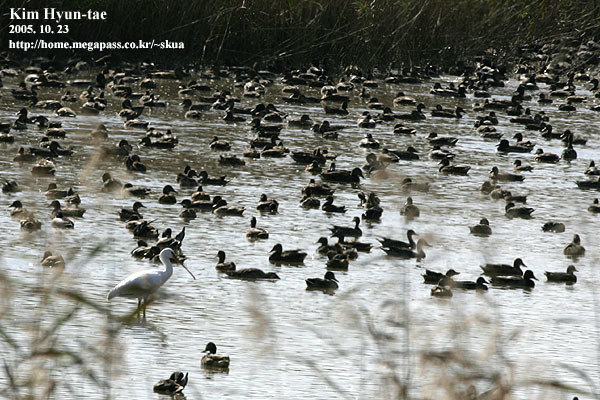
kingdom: Animalia
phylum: Chordata
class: Aves
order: Pelecaniformes
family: Threskiornithidae
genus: Platalea
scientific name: Platalea leucorodia
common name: Eurasian spoonbill
